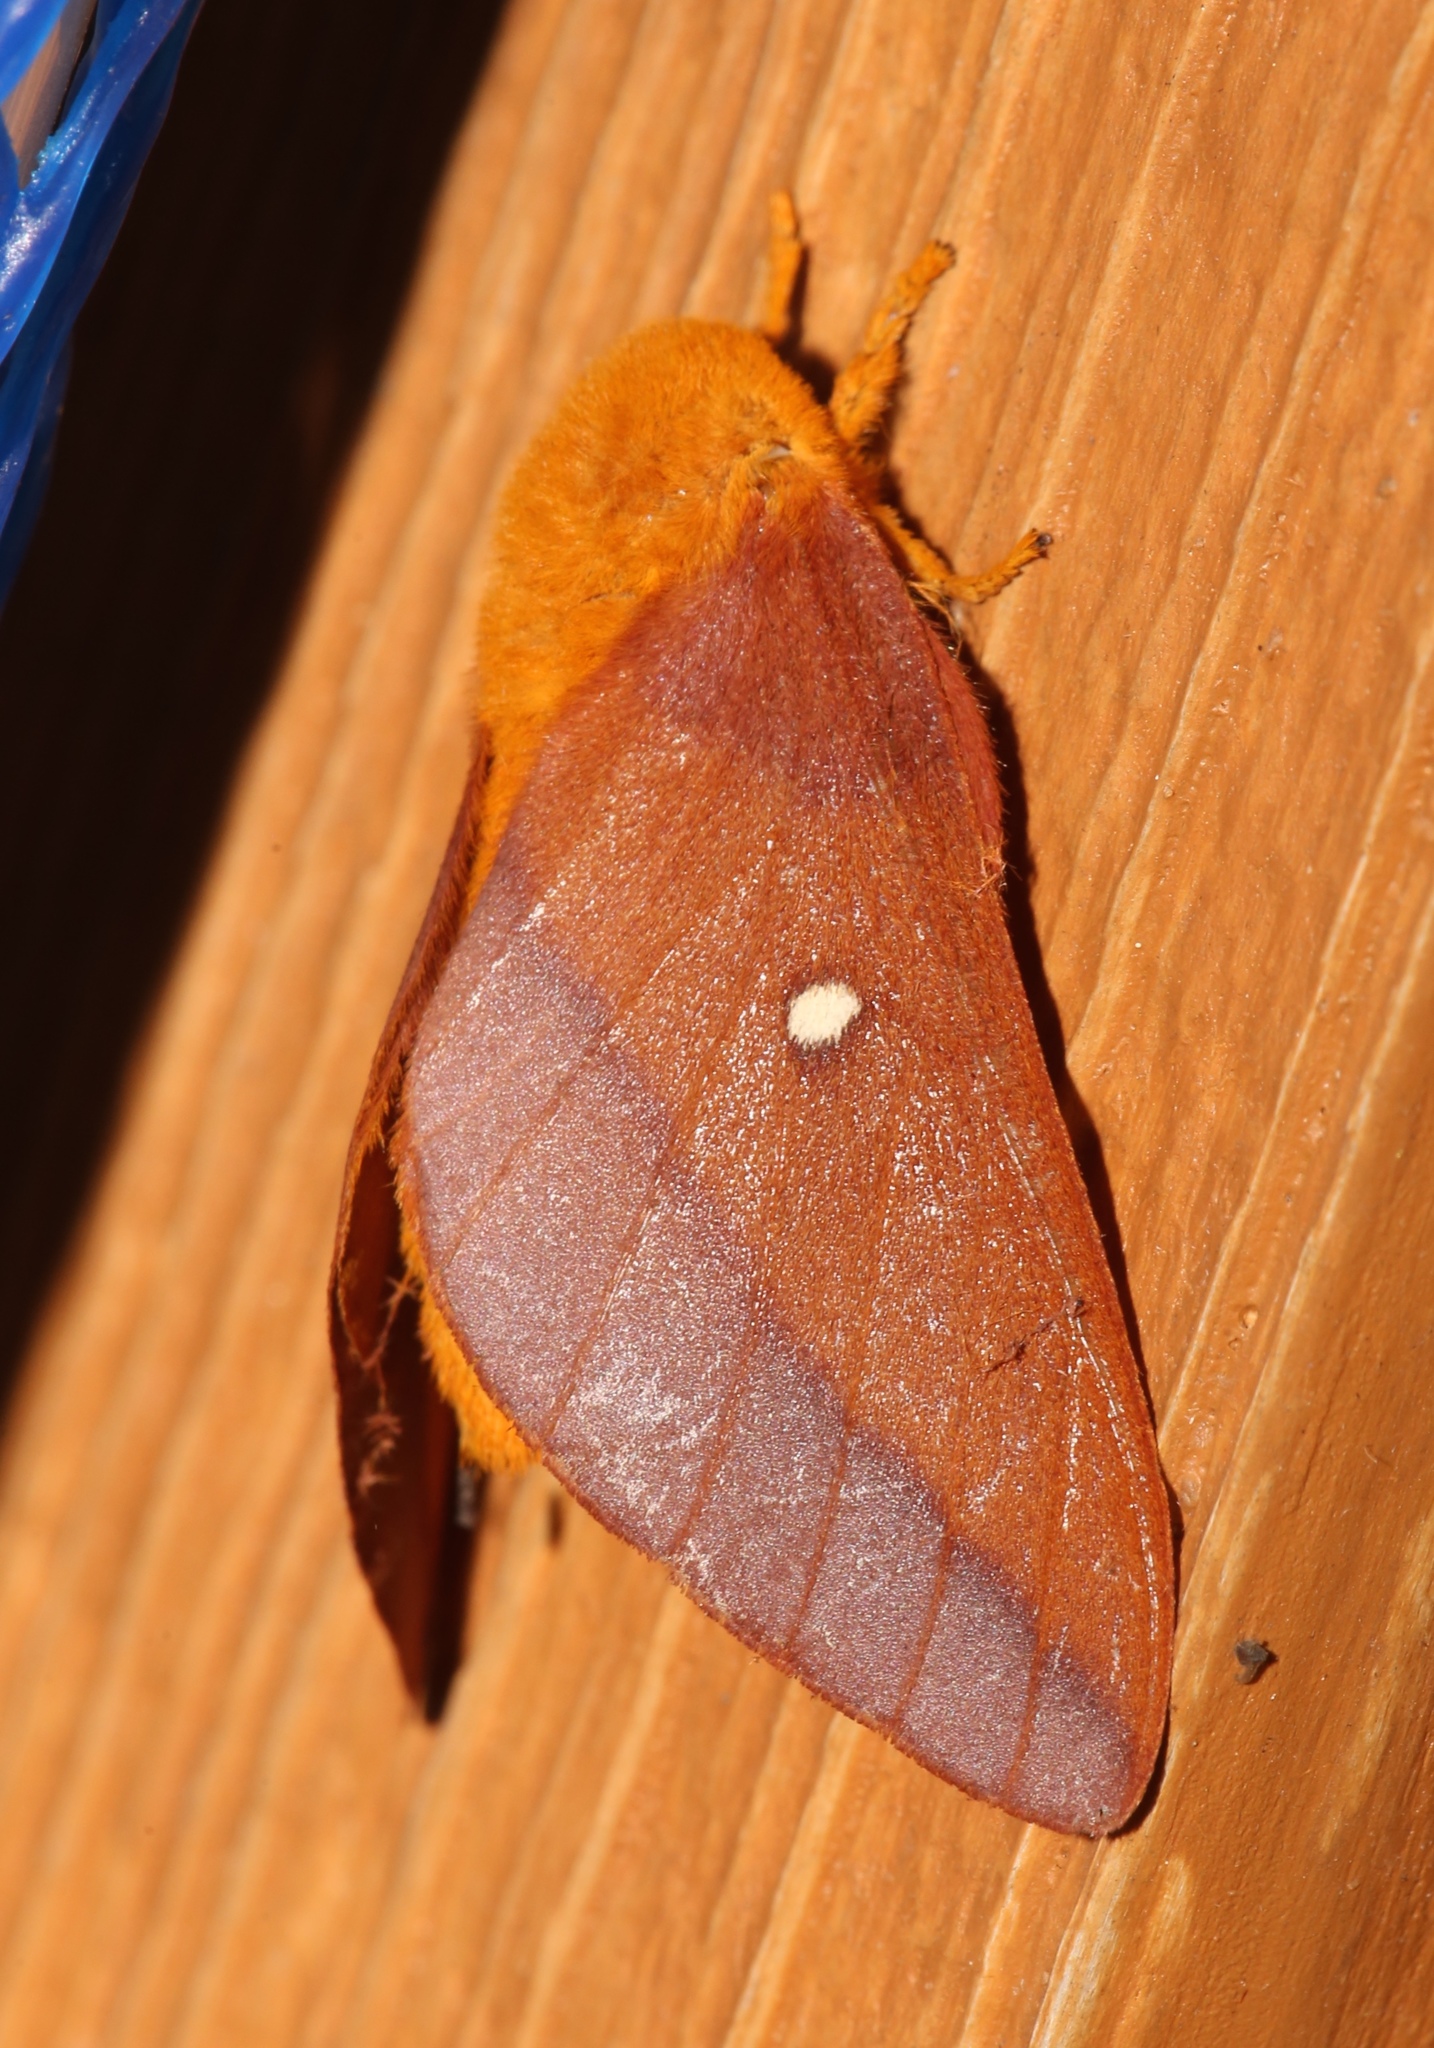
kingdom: Animalia
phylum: Arthropoda
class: Insecta
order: Lepidoptera
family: Saturniidae
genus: Anisota
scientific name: Anisota virginiensis
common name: Pink striped oakworm moth
